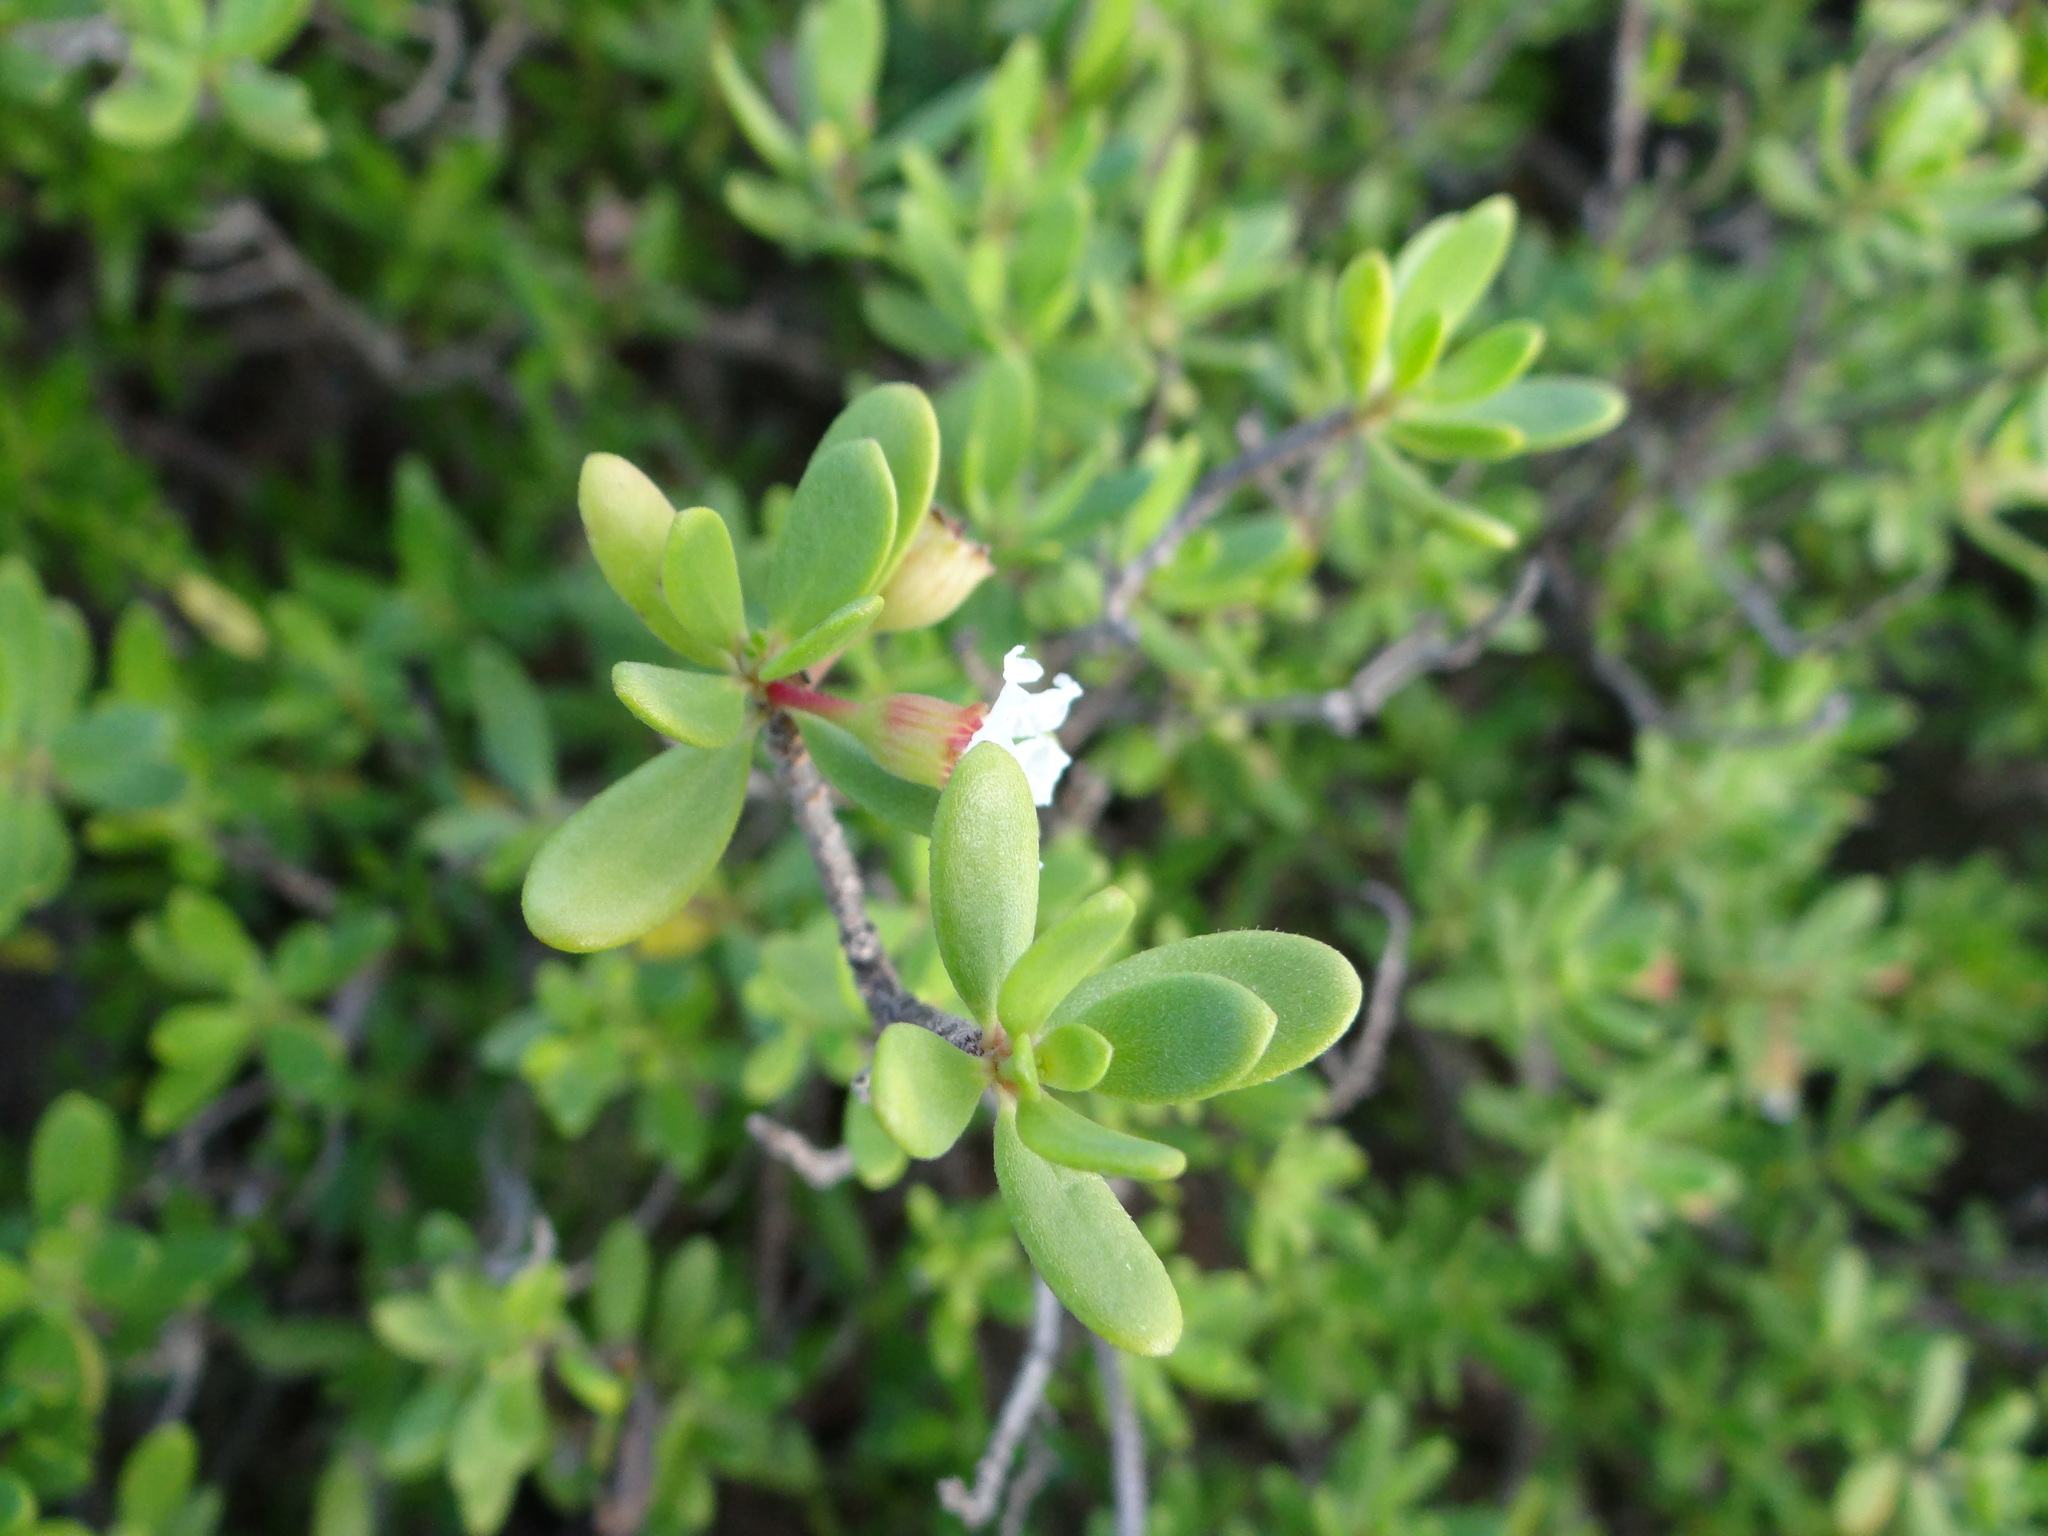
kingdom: Plantae
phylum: Tracheophyta
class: Magnoliopsida
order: Myrtales
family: Lythraceae
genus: Pemphis
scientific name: Pemphis acidula
